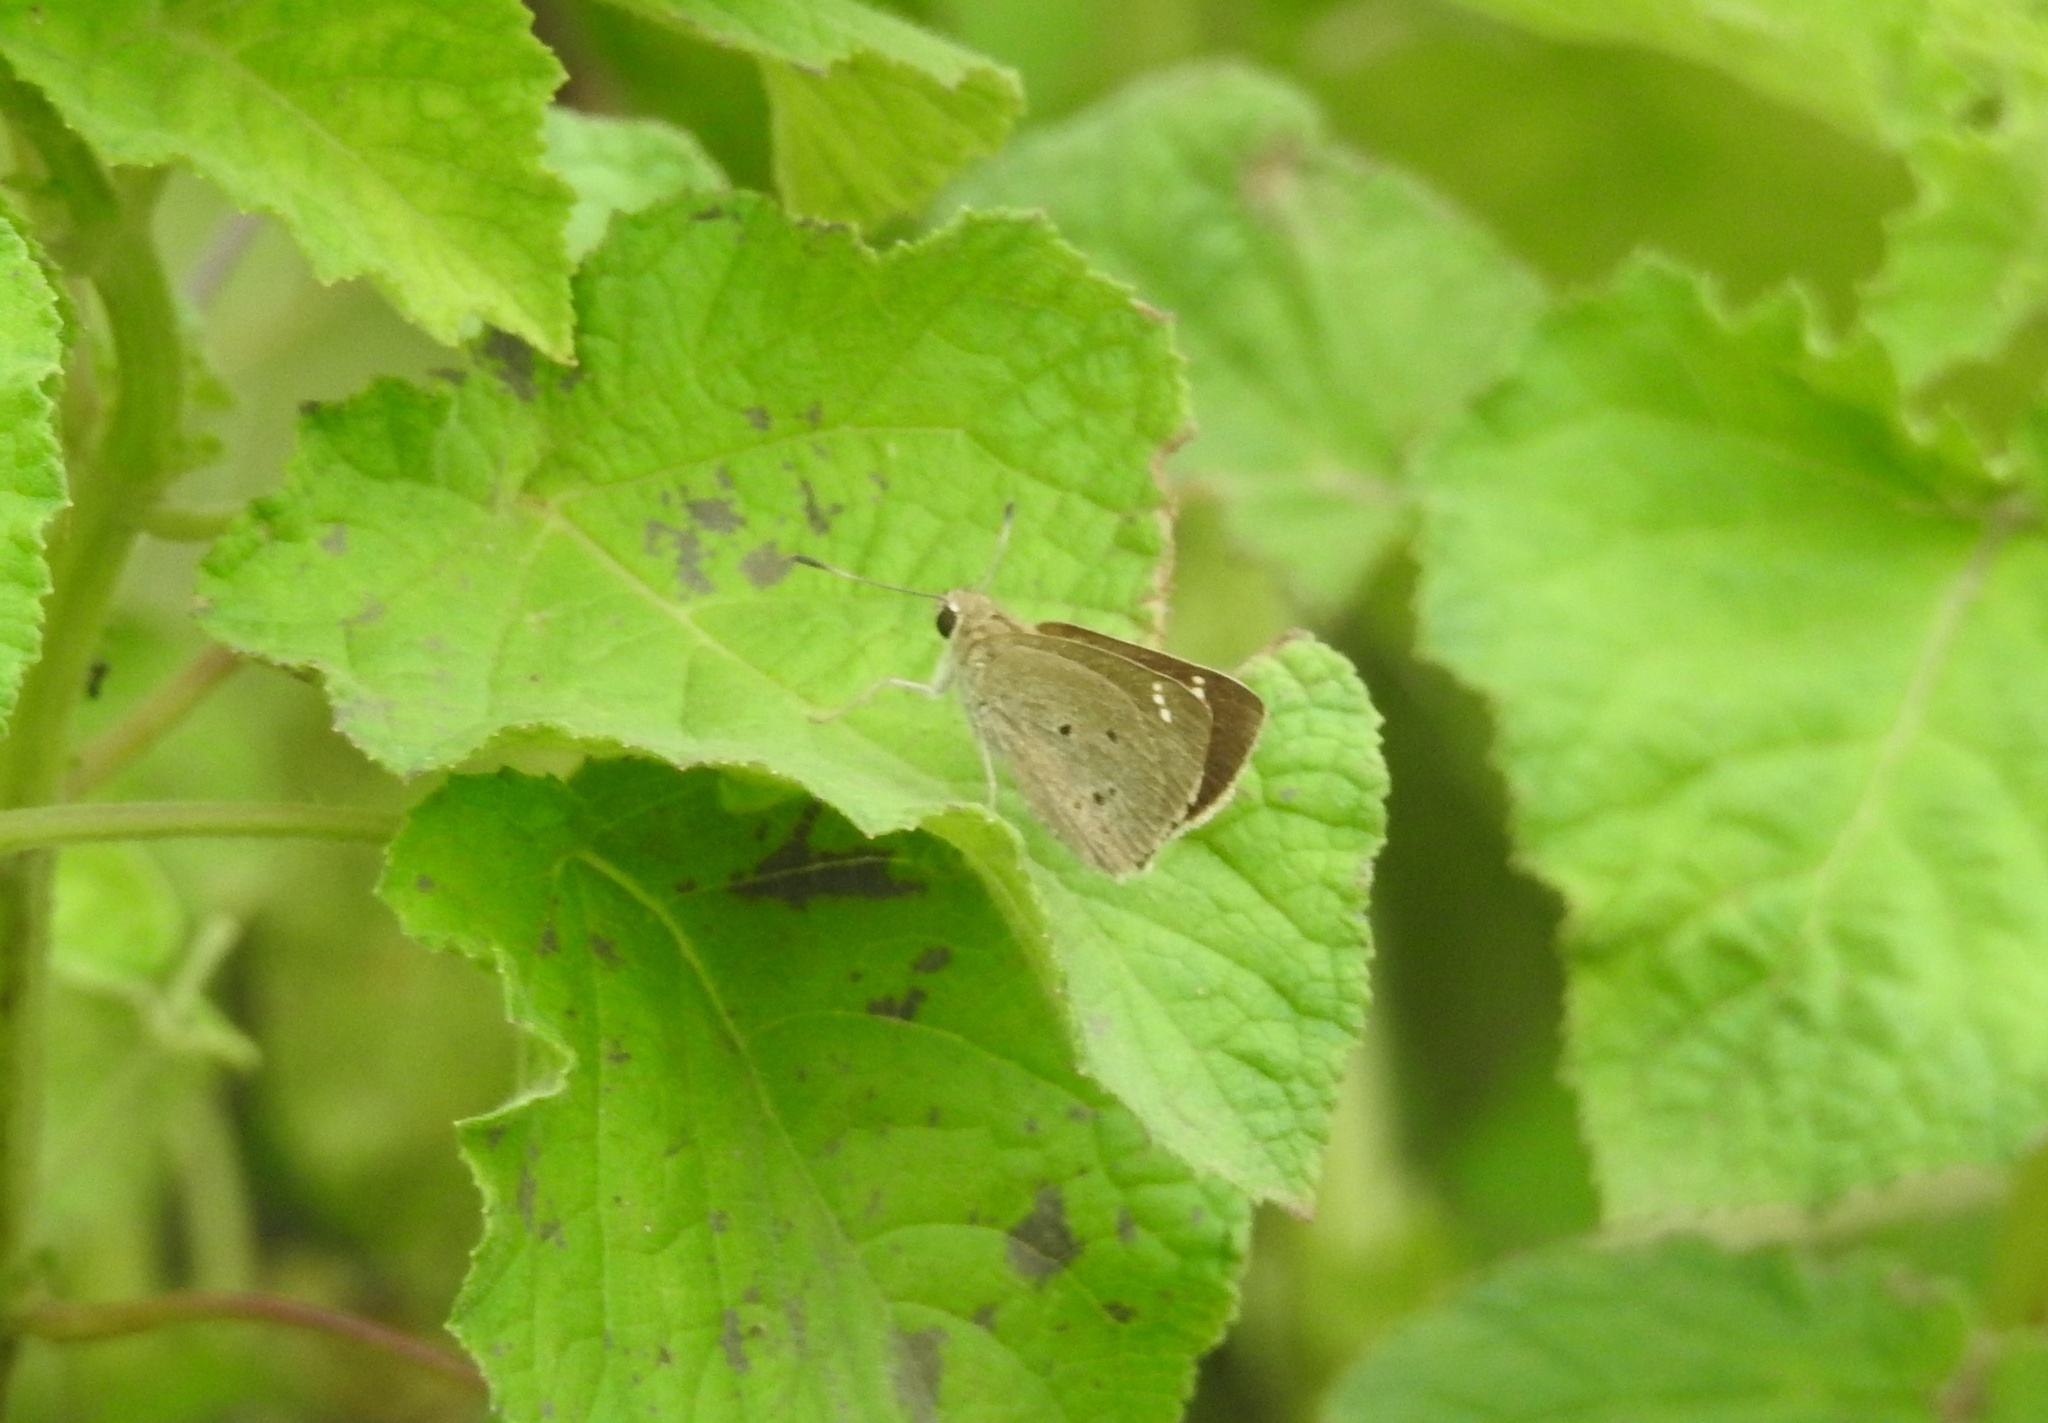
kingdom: Animalia
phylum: Arthropoda
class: Insecta
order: Lepidoptera
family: Hesperiidae
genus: Suastus
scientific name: Suastus gremius
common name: Indian palm bob
